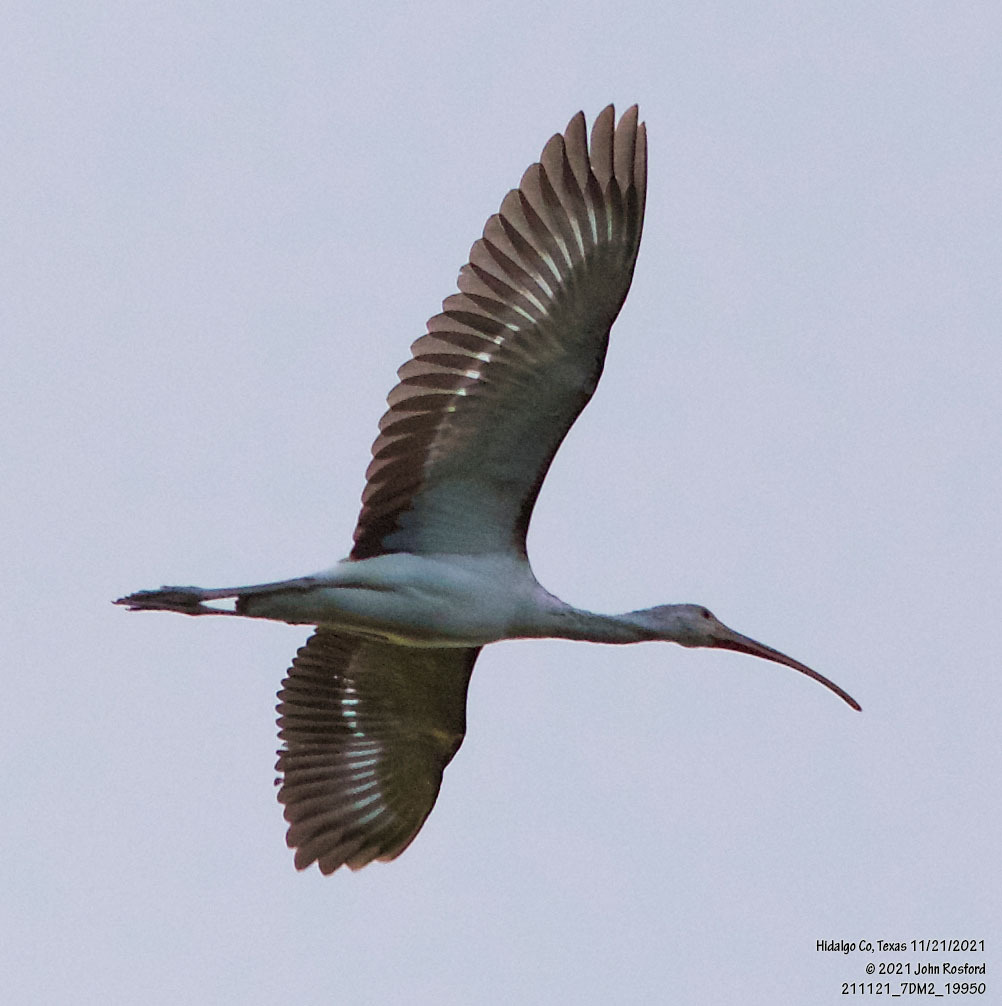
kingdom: Animalia
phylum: Chordata
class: Aves
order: Pelecaniformes
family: Threskiornithidae
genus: Eudocimus
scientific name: Eudocimus albus
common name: White ibis
